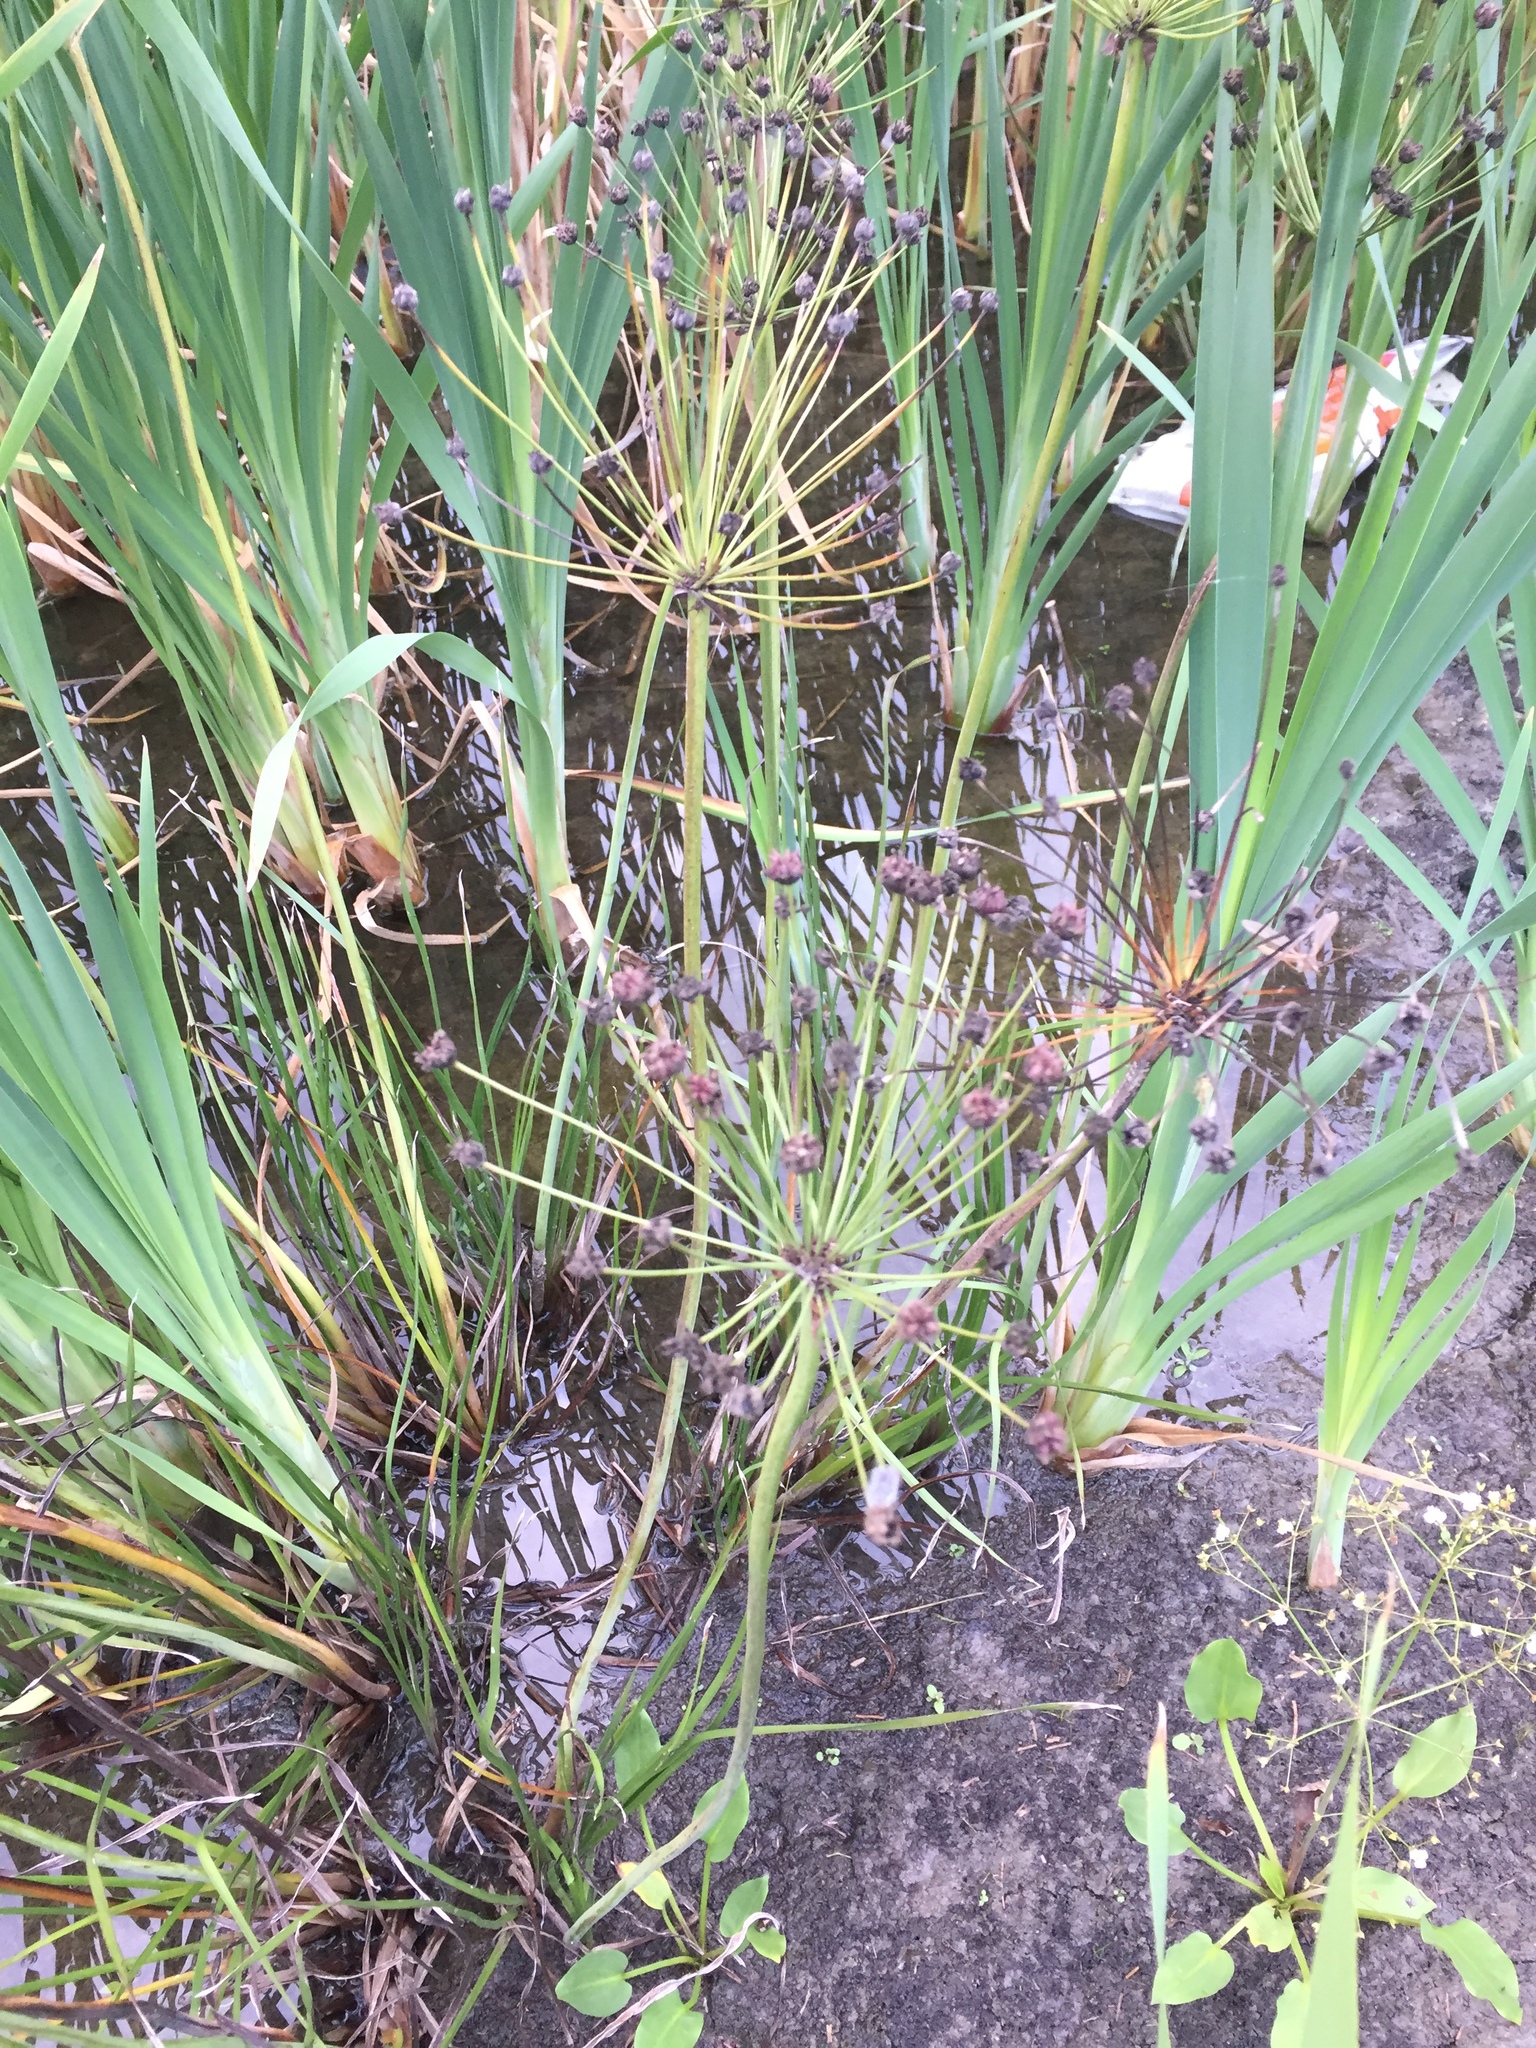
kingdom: Plantae
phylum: Tracheophyta
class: Liliopsida
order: Alismatales
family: Butomaceae
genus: Butomus
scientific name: Butomus umbellatus
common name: Flowering-rush
